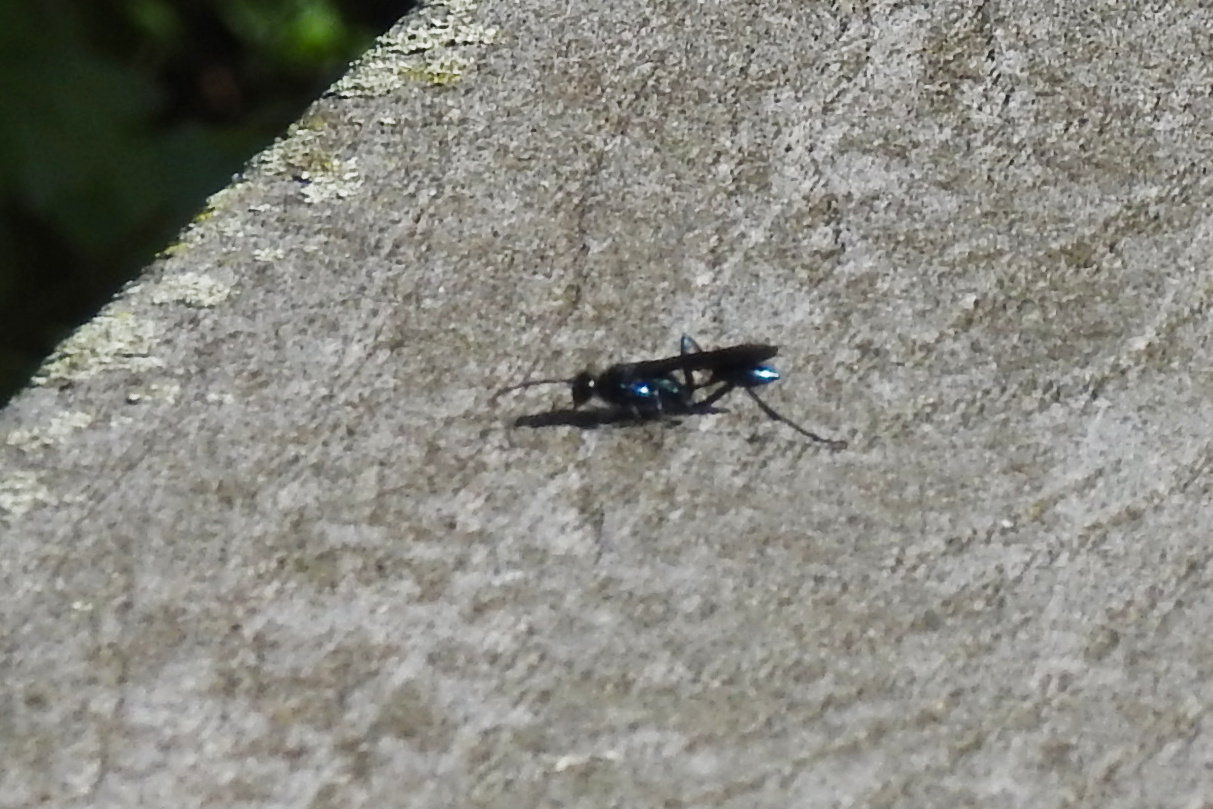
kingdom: Animalia
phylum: Arthropoda
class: Insecta
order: Hymenoptera
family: Sphecidae
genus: Chalybion
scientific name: Chalybion californicum
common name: Mud dauber
